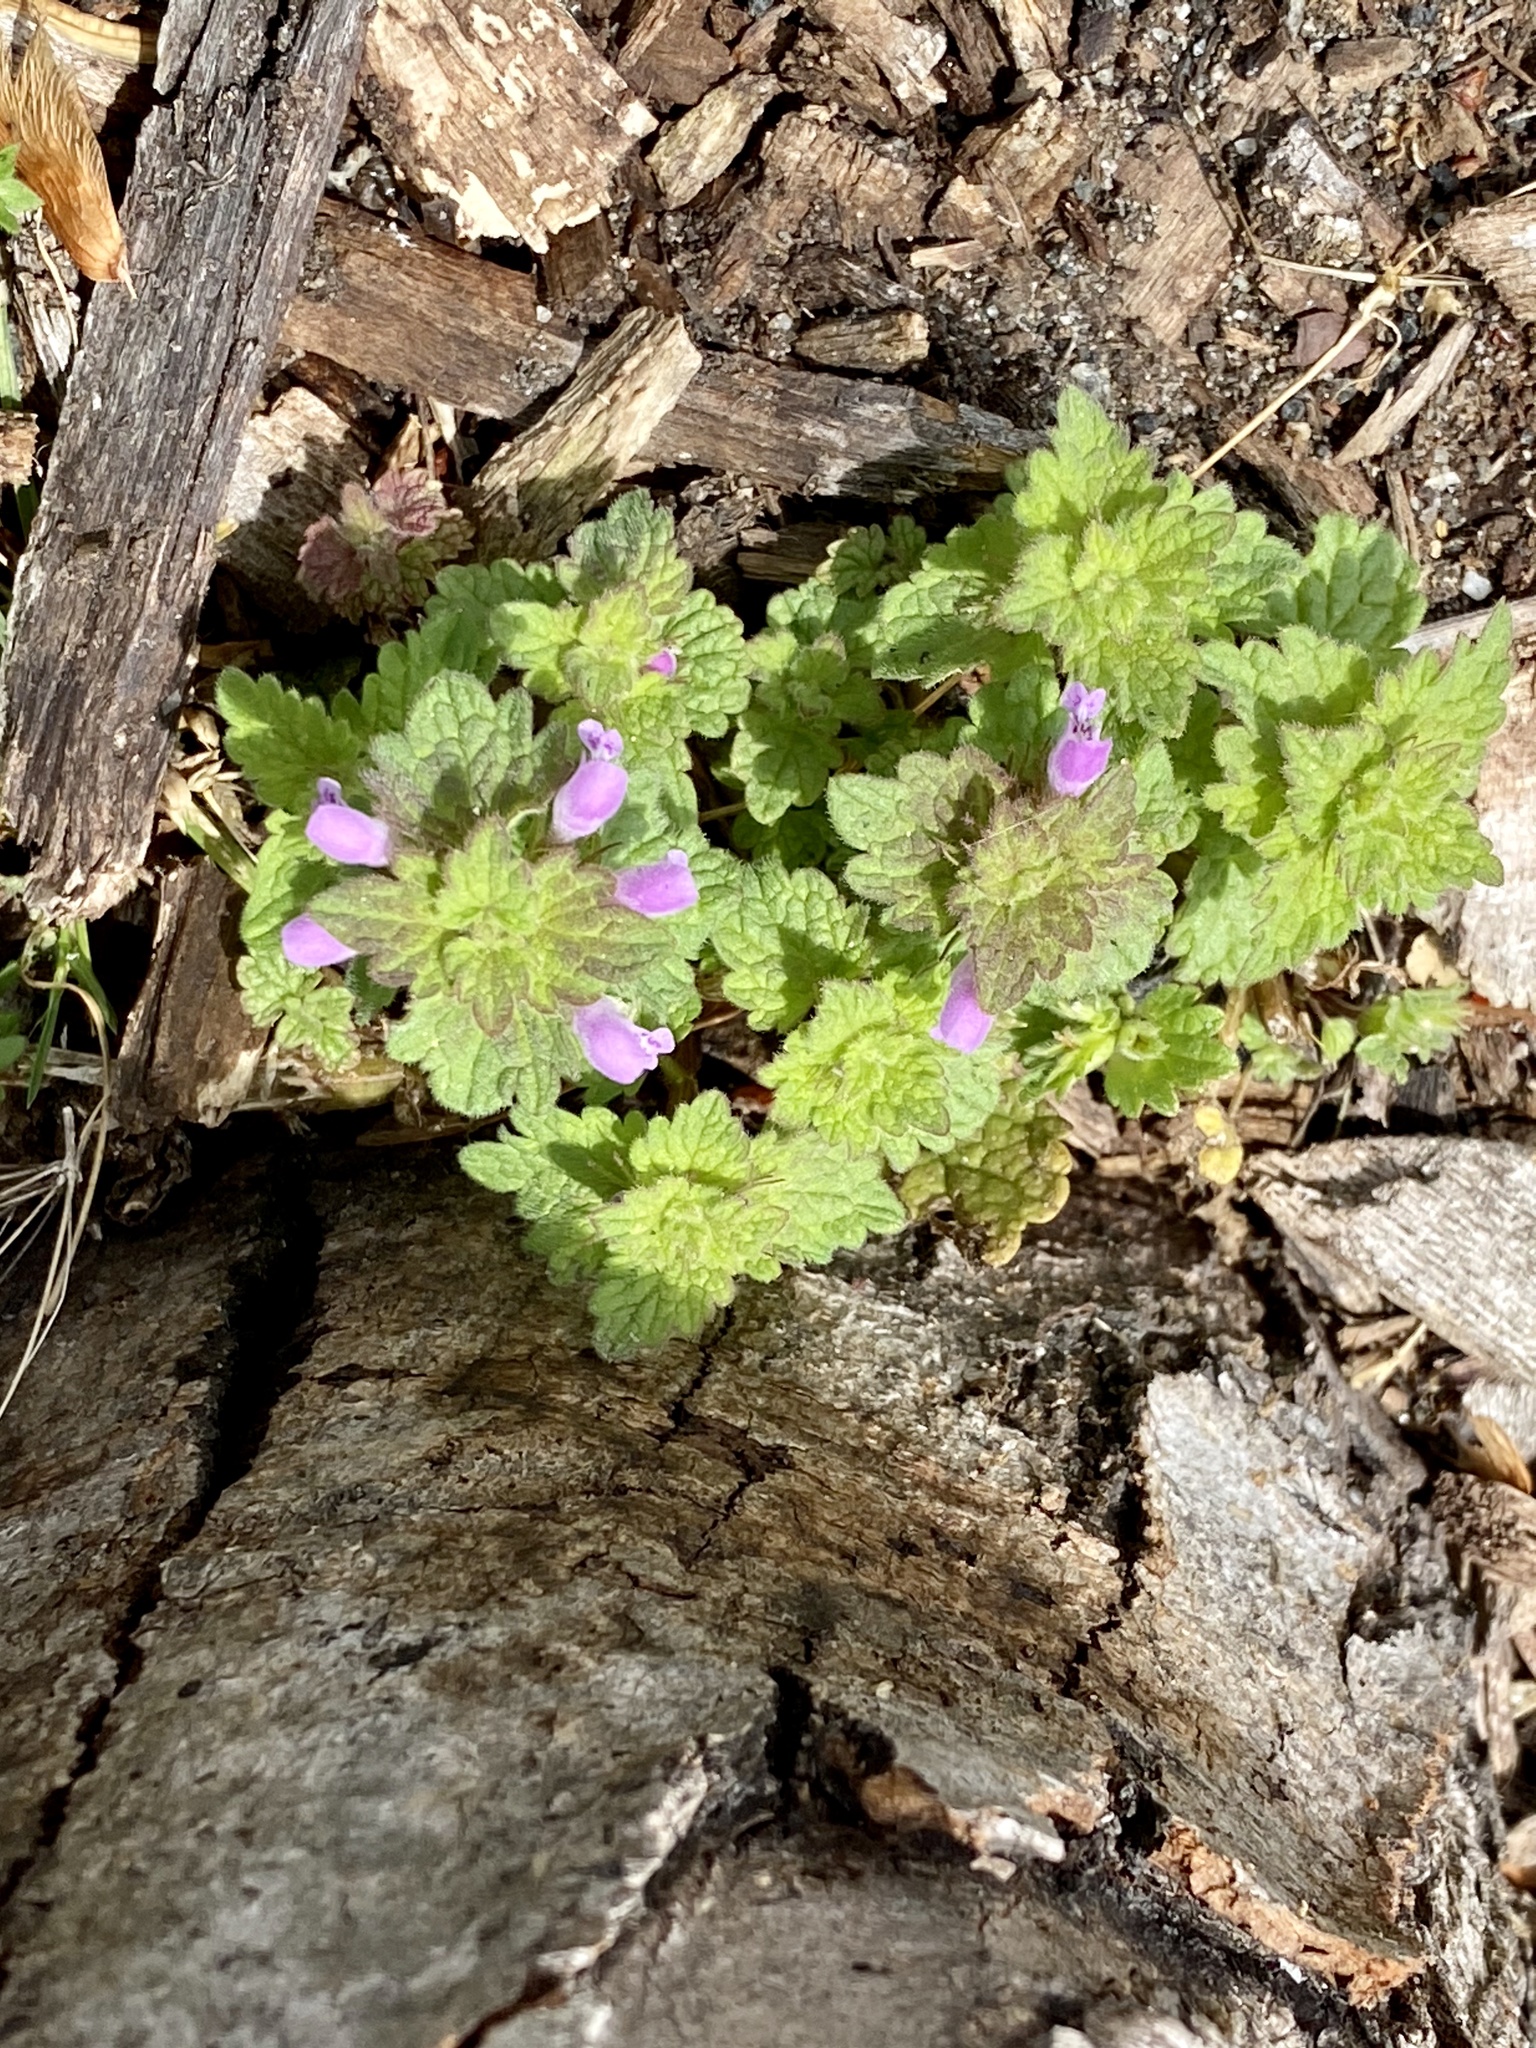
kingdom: Plantae
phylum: Tracheophyta
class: Magnoliopsida
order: Lamiales
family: Lamiaceae
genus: Lamium
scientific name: Lamium purpureum
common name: Red dead-nettle
